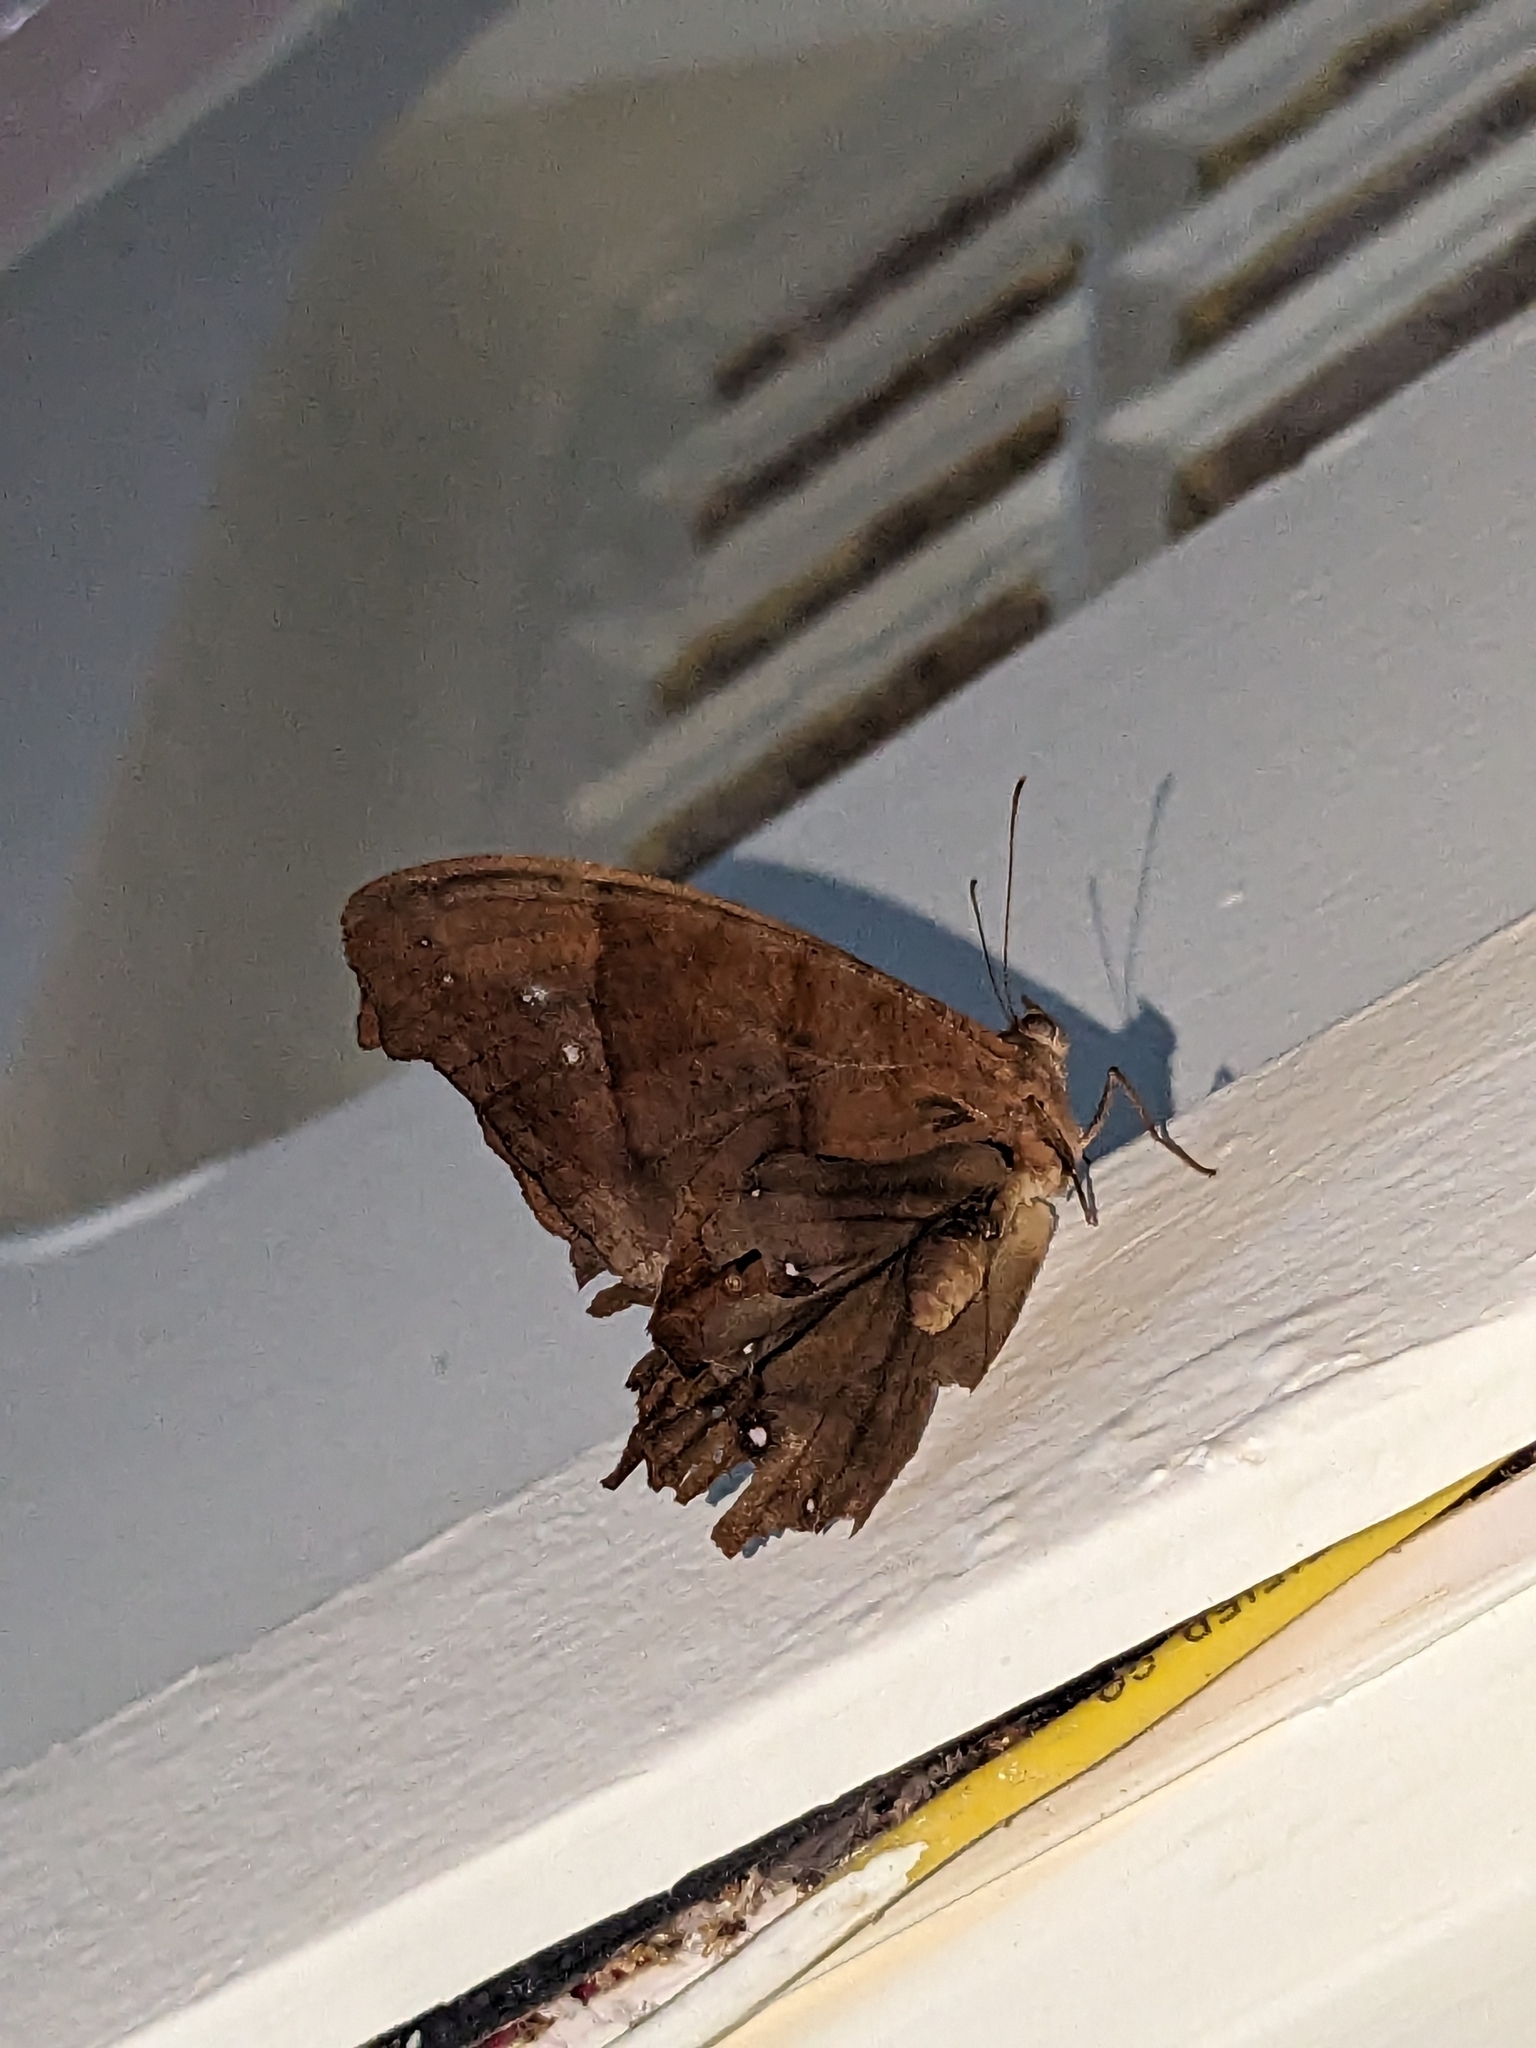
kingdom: Animalia
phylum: Arthropoda
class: Insecta
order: Lepidoptera
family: Nymphalidae
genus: Melanitis
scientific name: Melanitis leda
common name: Twilight brown
